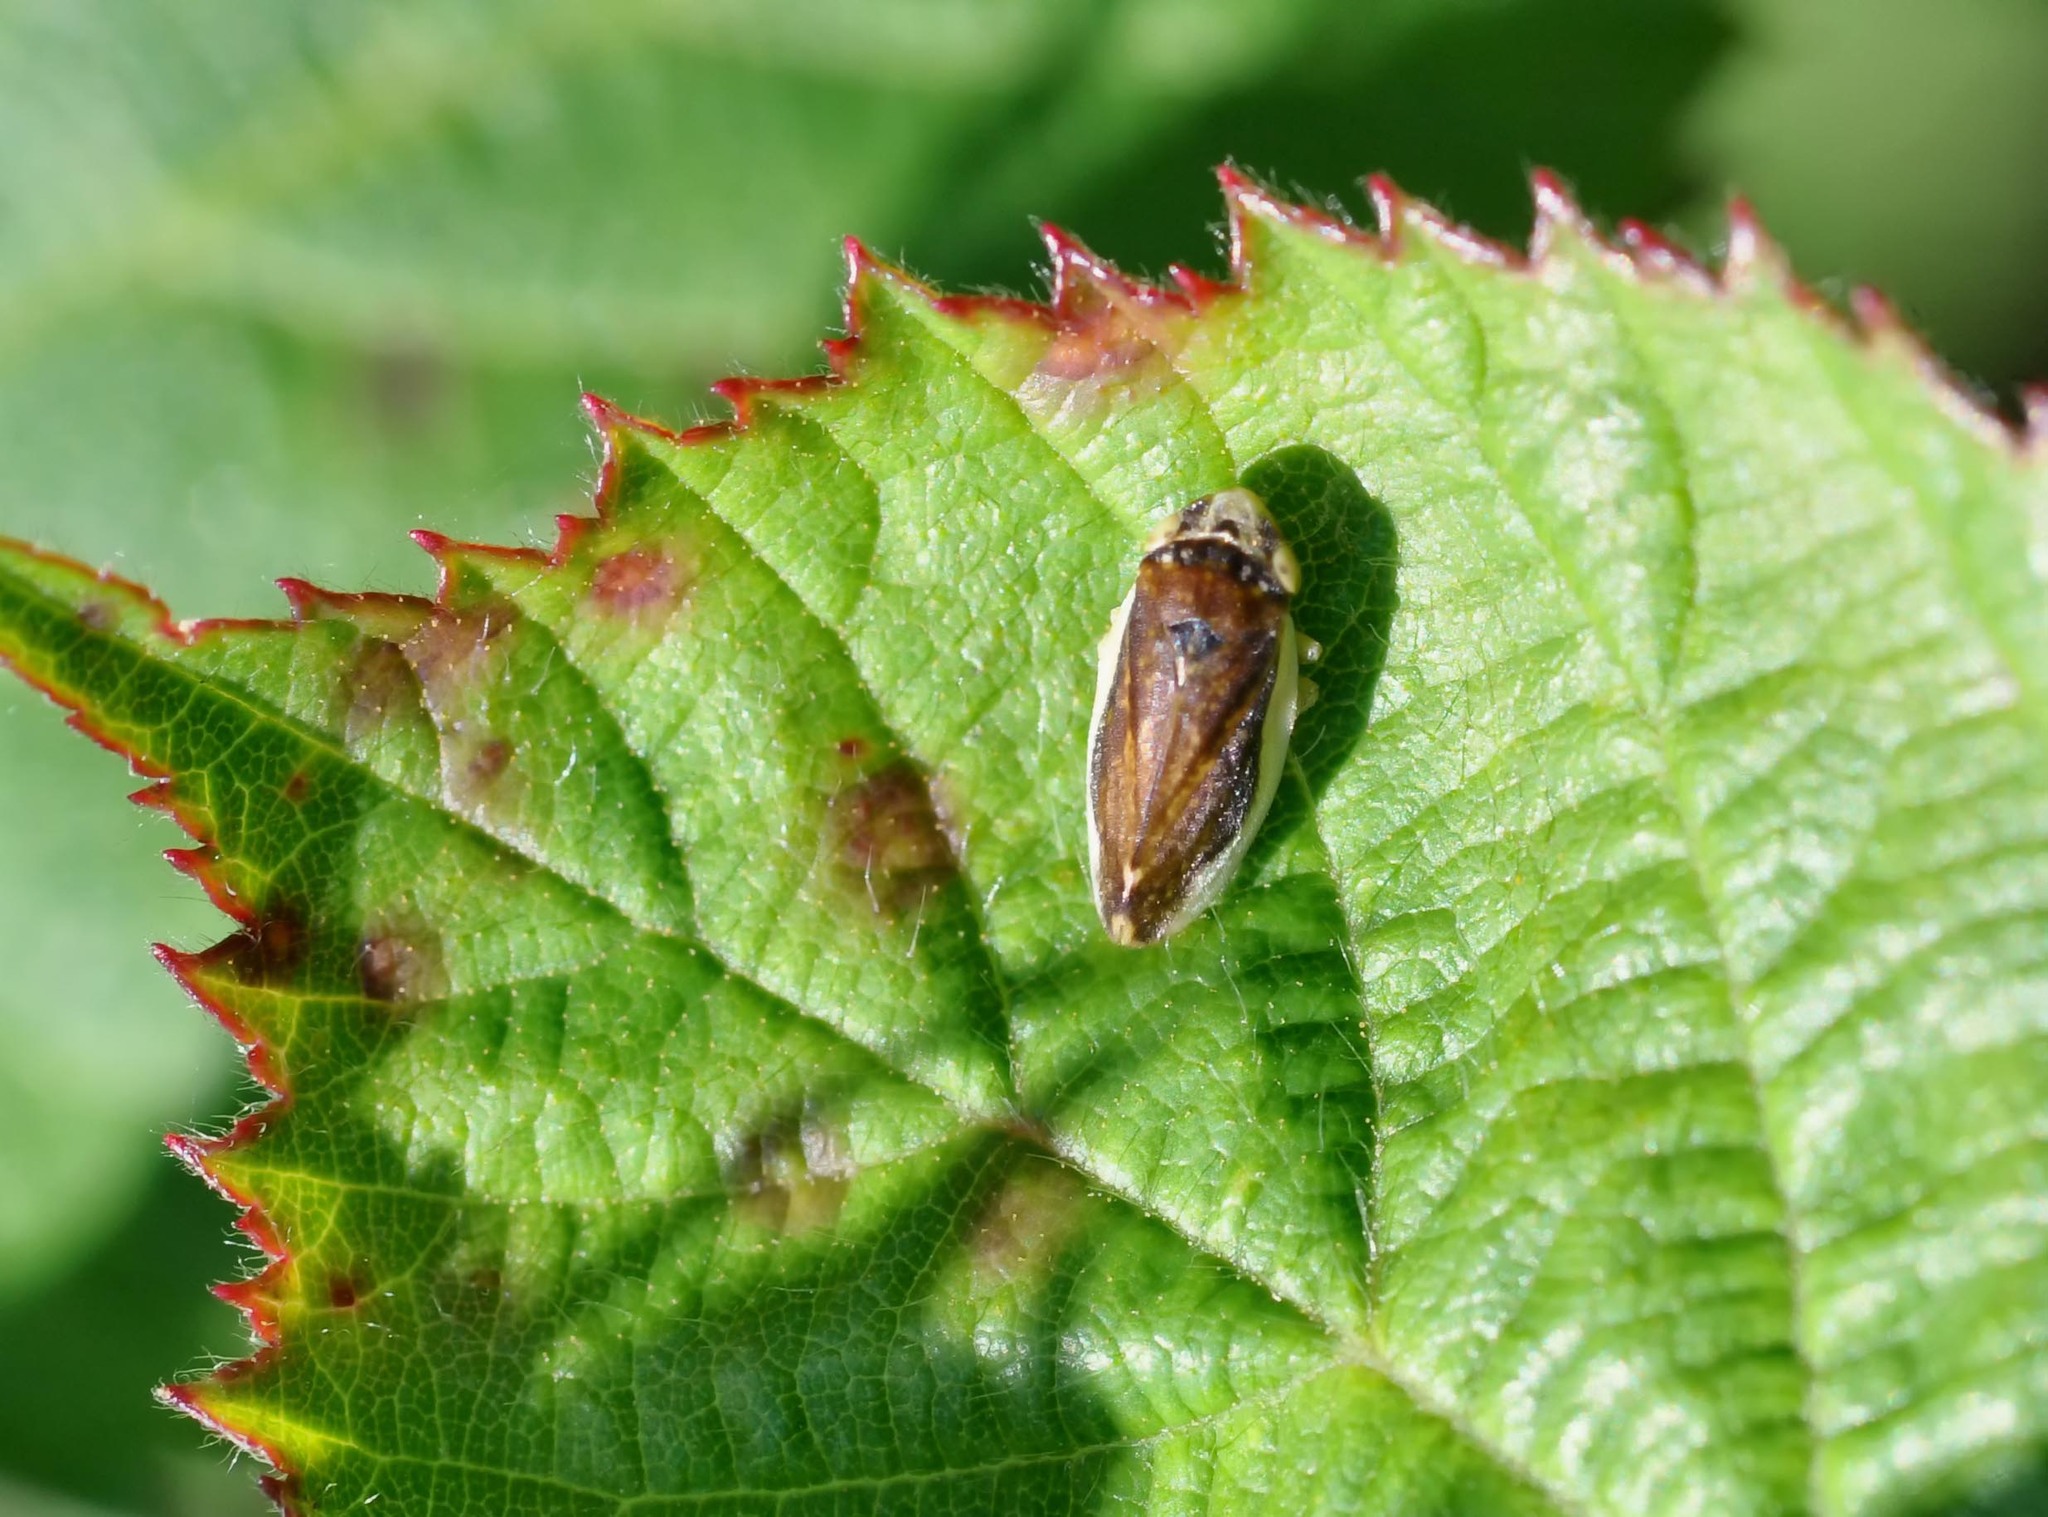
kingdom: Animalia
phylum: Arthropoda
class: Insecta
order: Hemiptera
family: Aphrophoridae
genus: Philaenus
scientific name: Philaenus spumarius
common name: Meadow spittlebug
